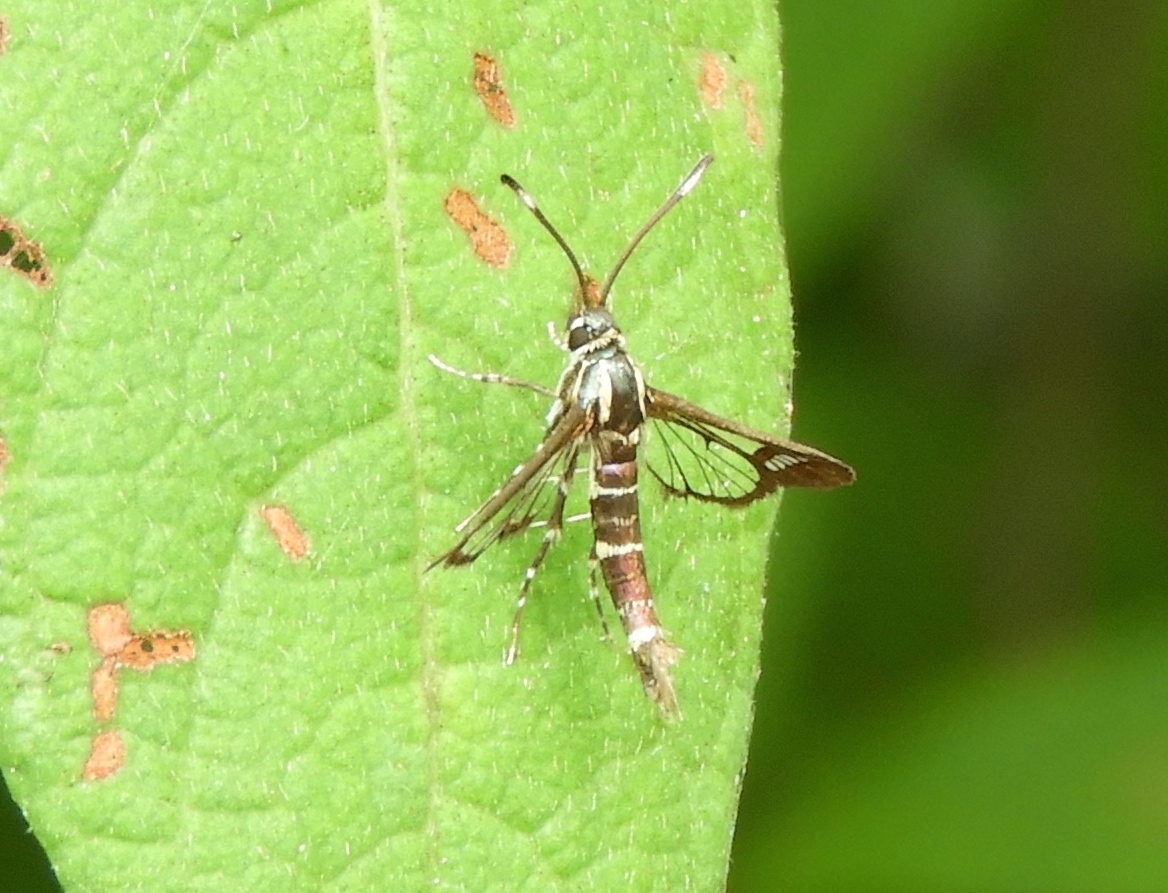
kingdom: Animalia
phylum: Arthropoda
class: Insecta
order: Lepidoptera
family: Sesiidae
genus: Carmenta
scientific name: Carmenta ithacae
